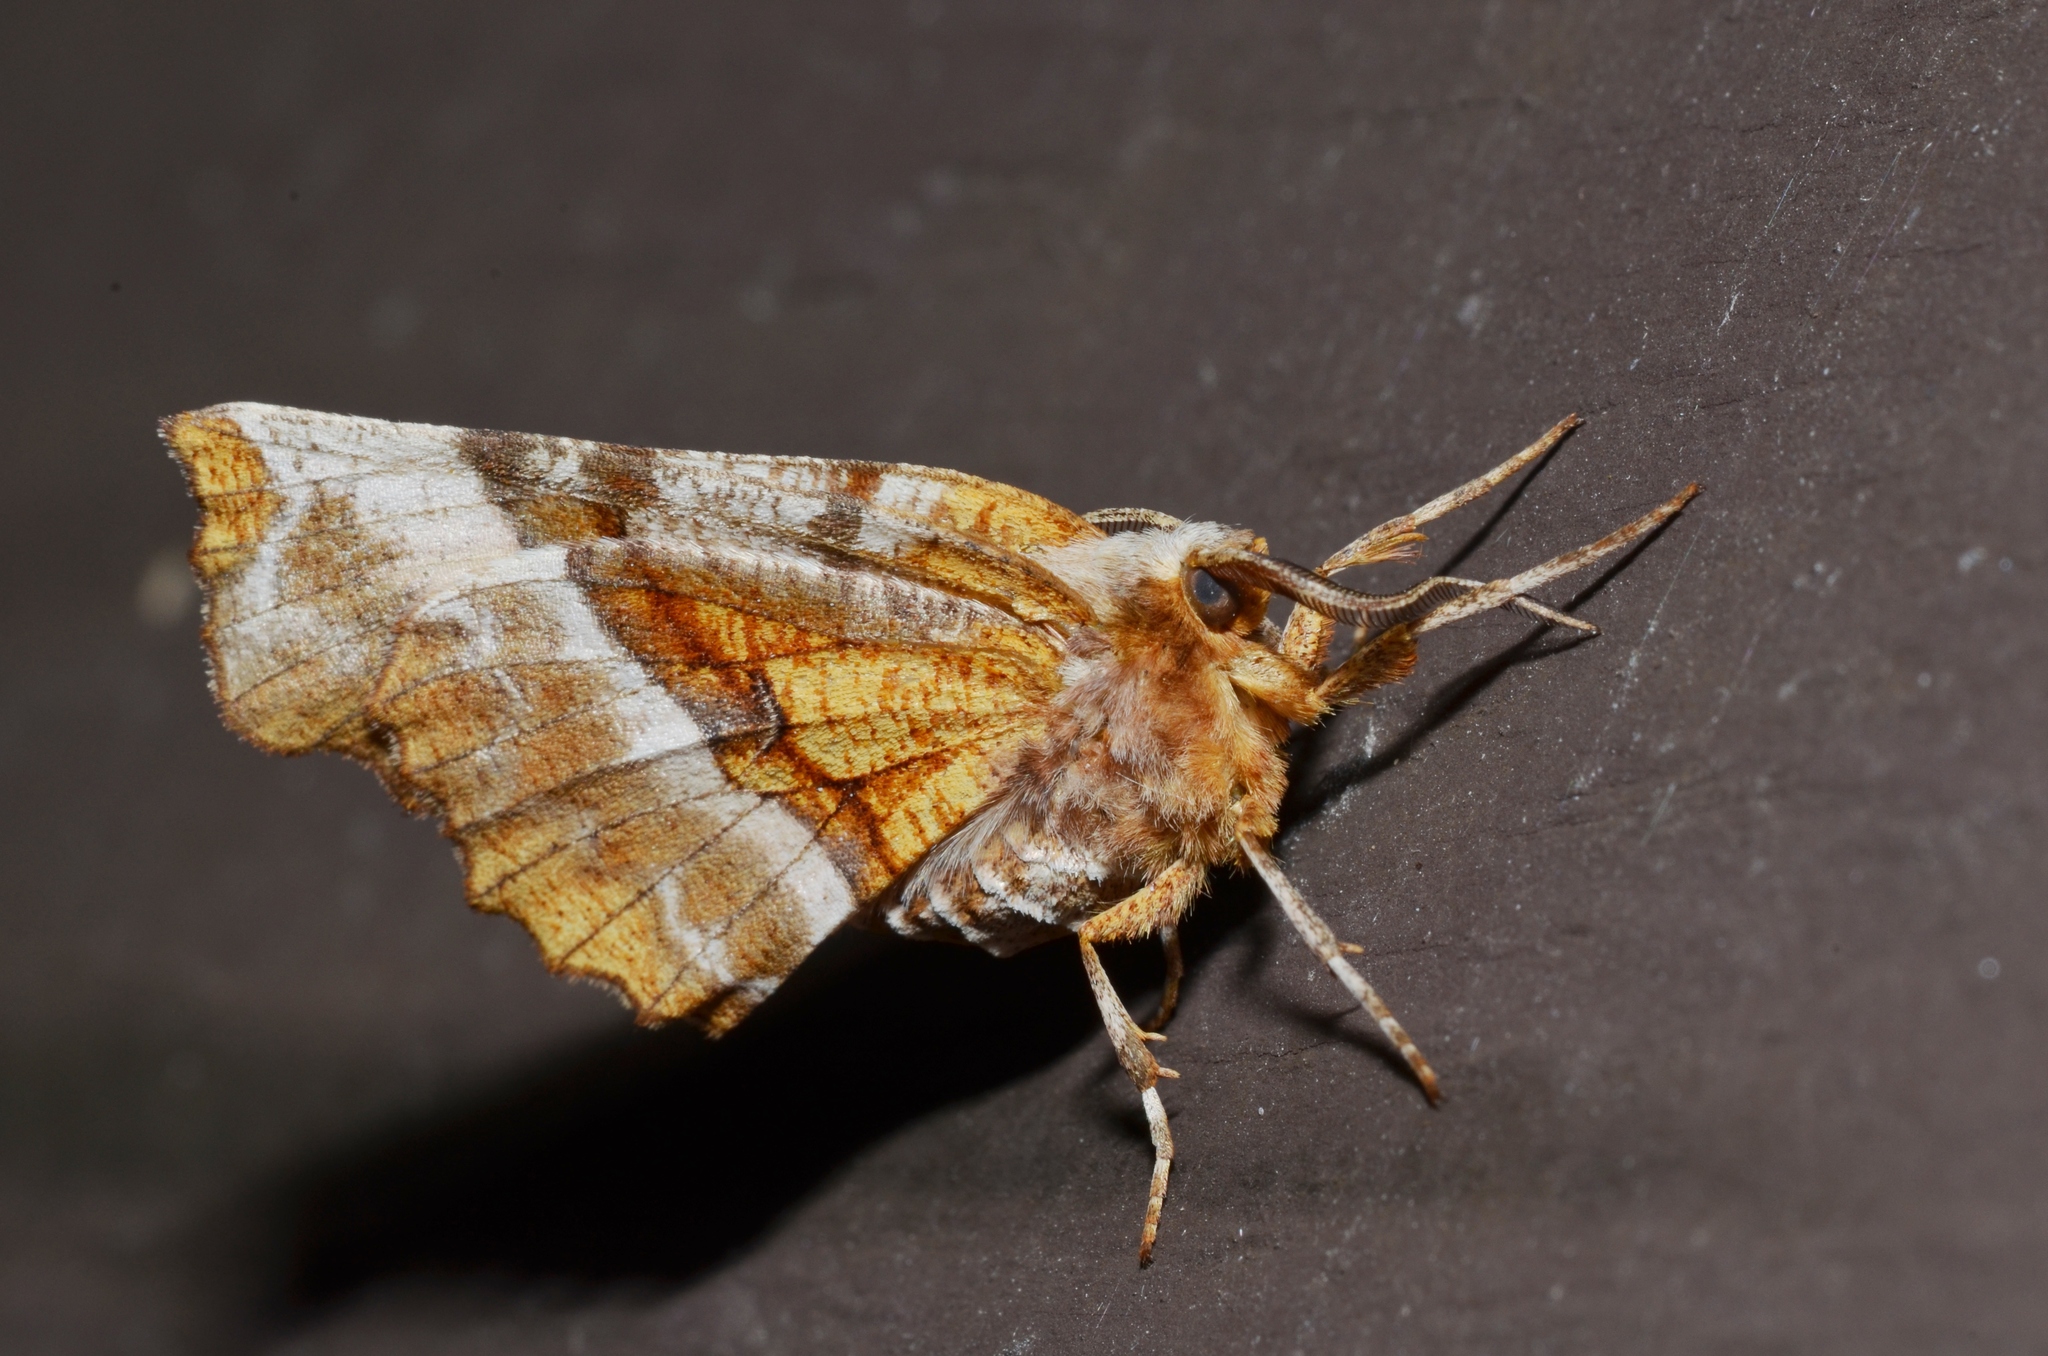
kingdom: Animalia
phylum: Arthropoda
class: Insecta
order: Lepidoptera
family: Geometridae
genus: Selenia
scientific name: Selenia kentaria
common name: Kent's geometer
